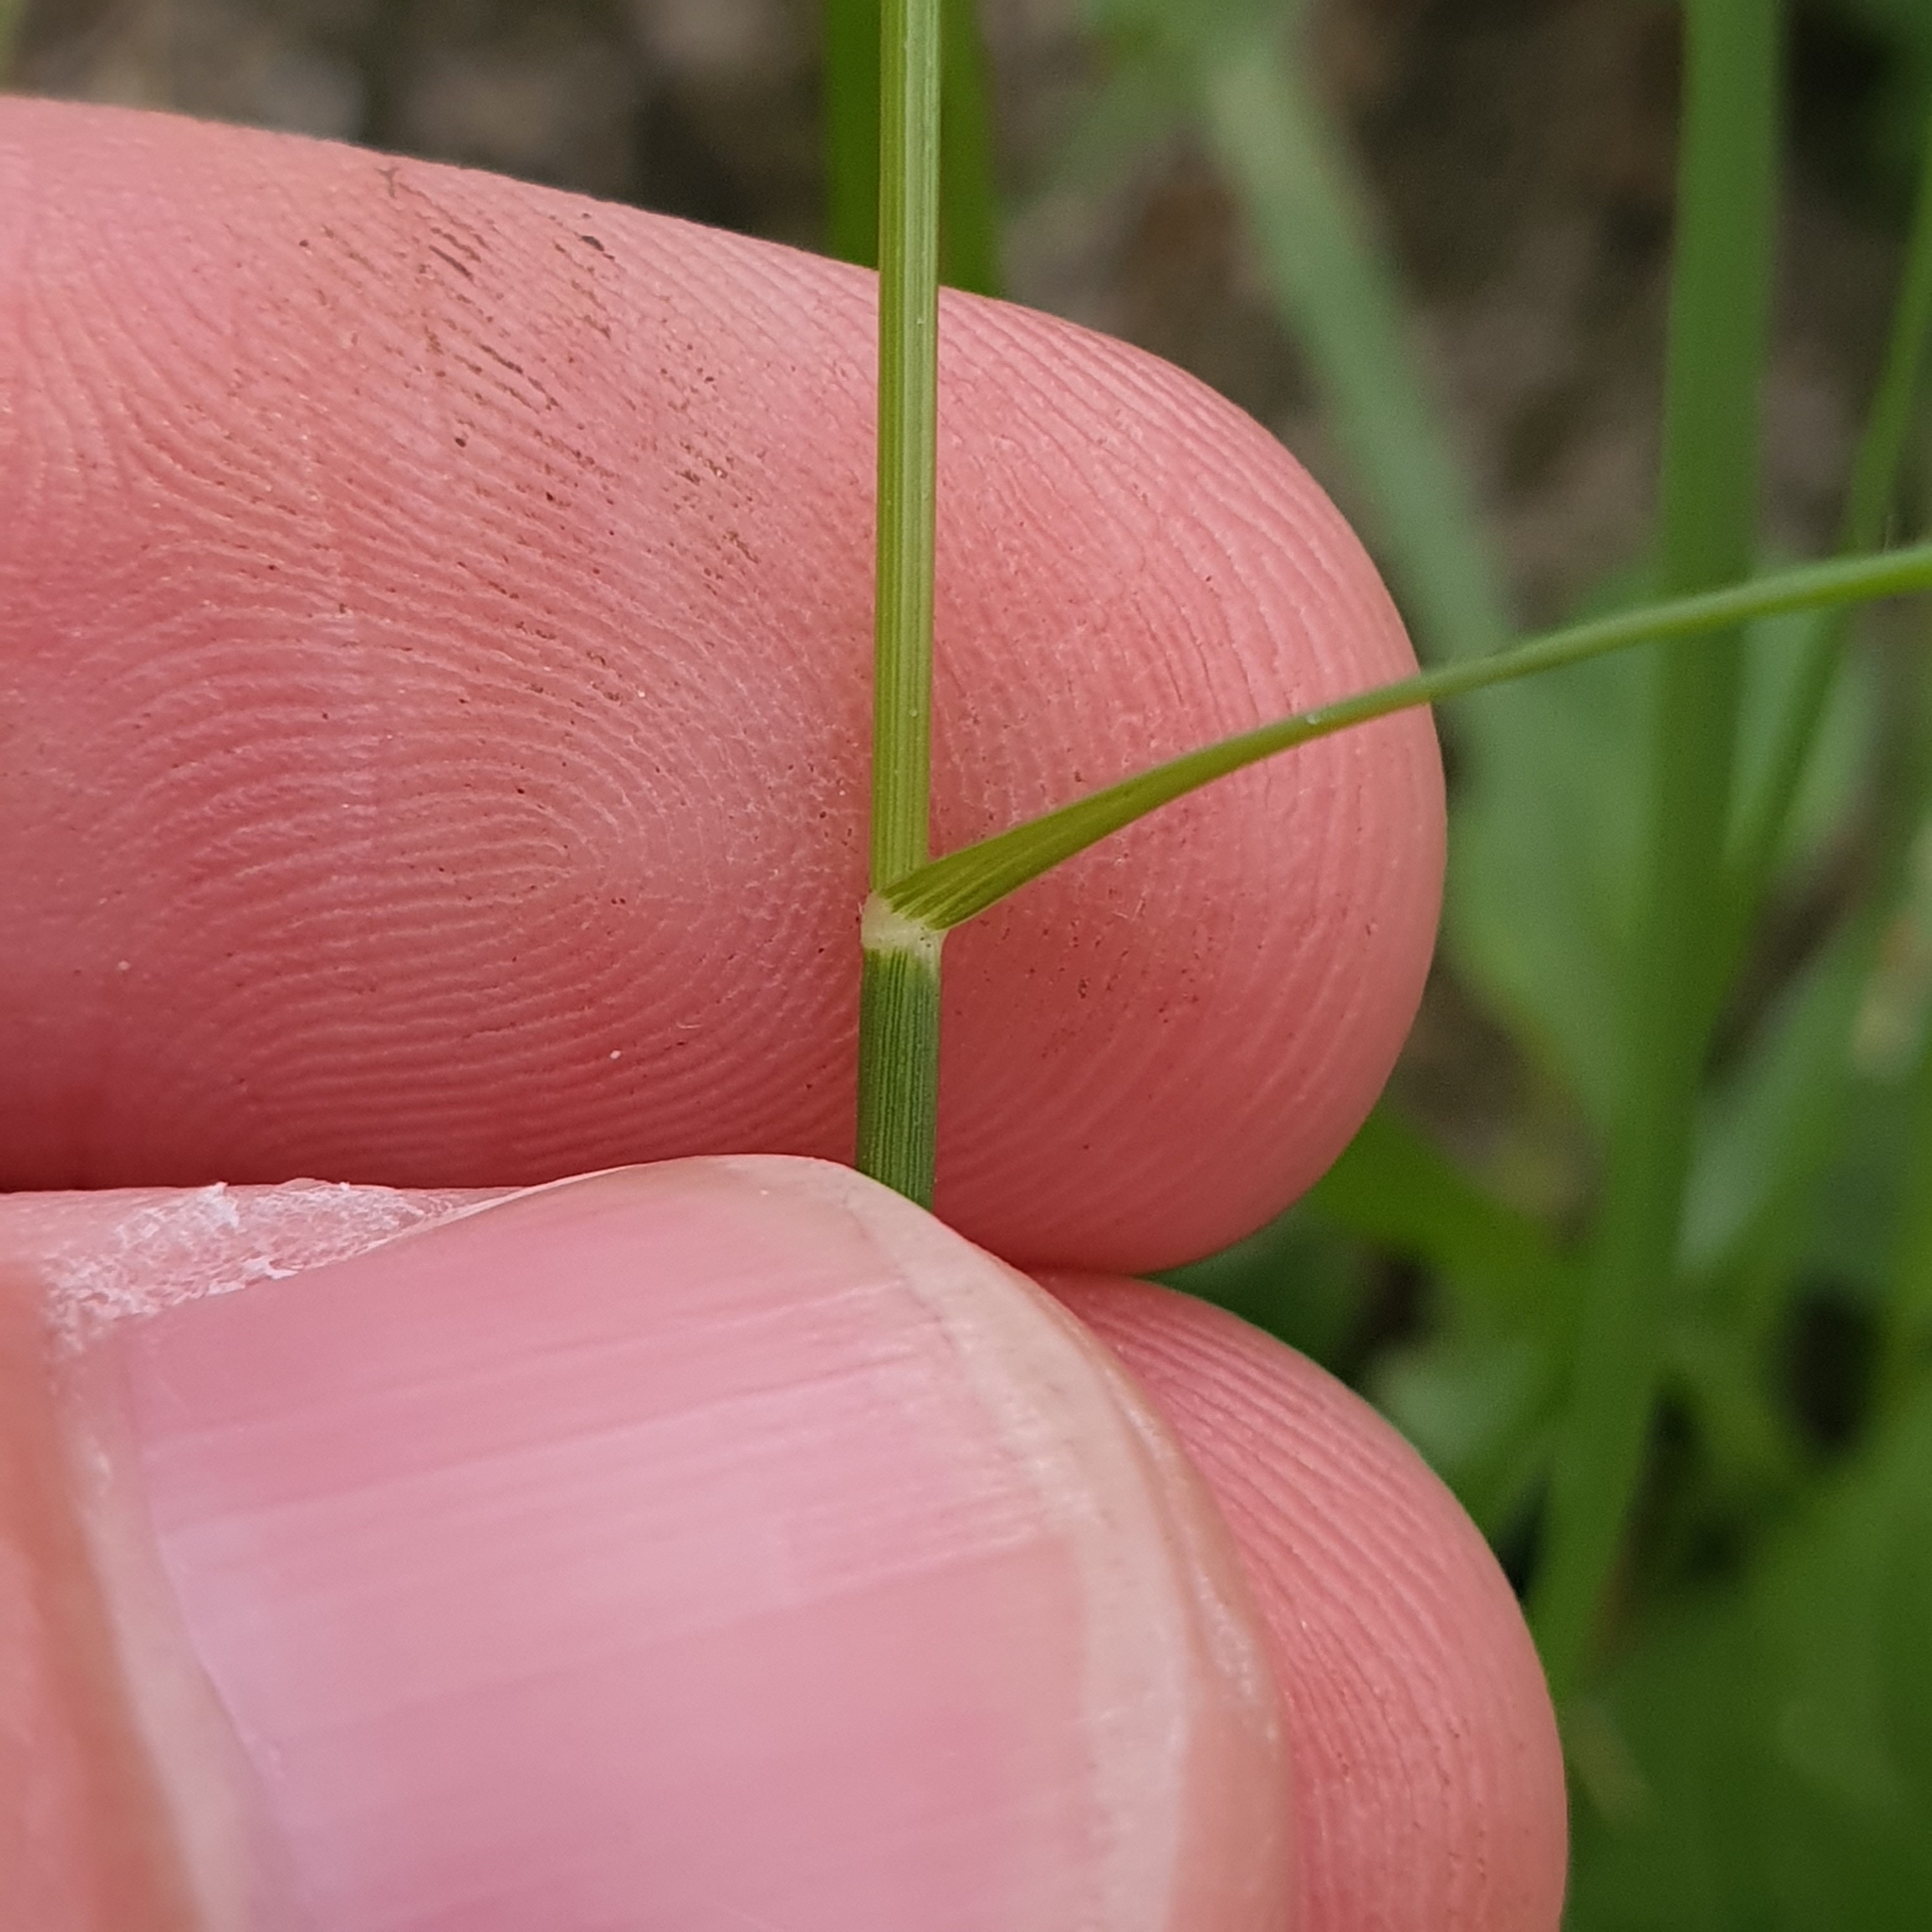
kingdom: Plantae
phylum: Tracheophyta
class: Liliopsida
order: Poales
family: Poaceae
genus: Sporobolus
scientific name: Sporobolus diandrus
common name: Tussock dropseed
